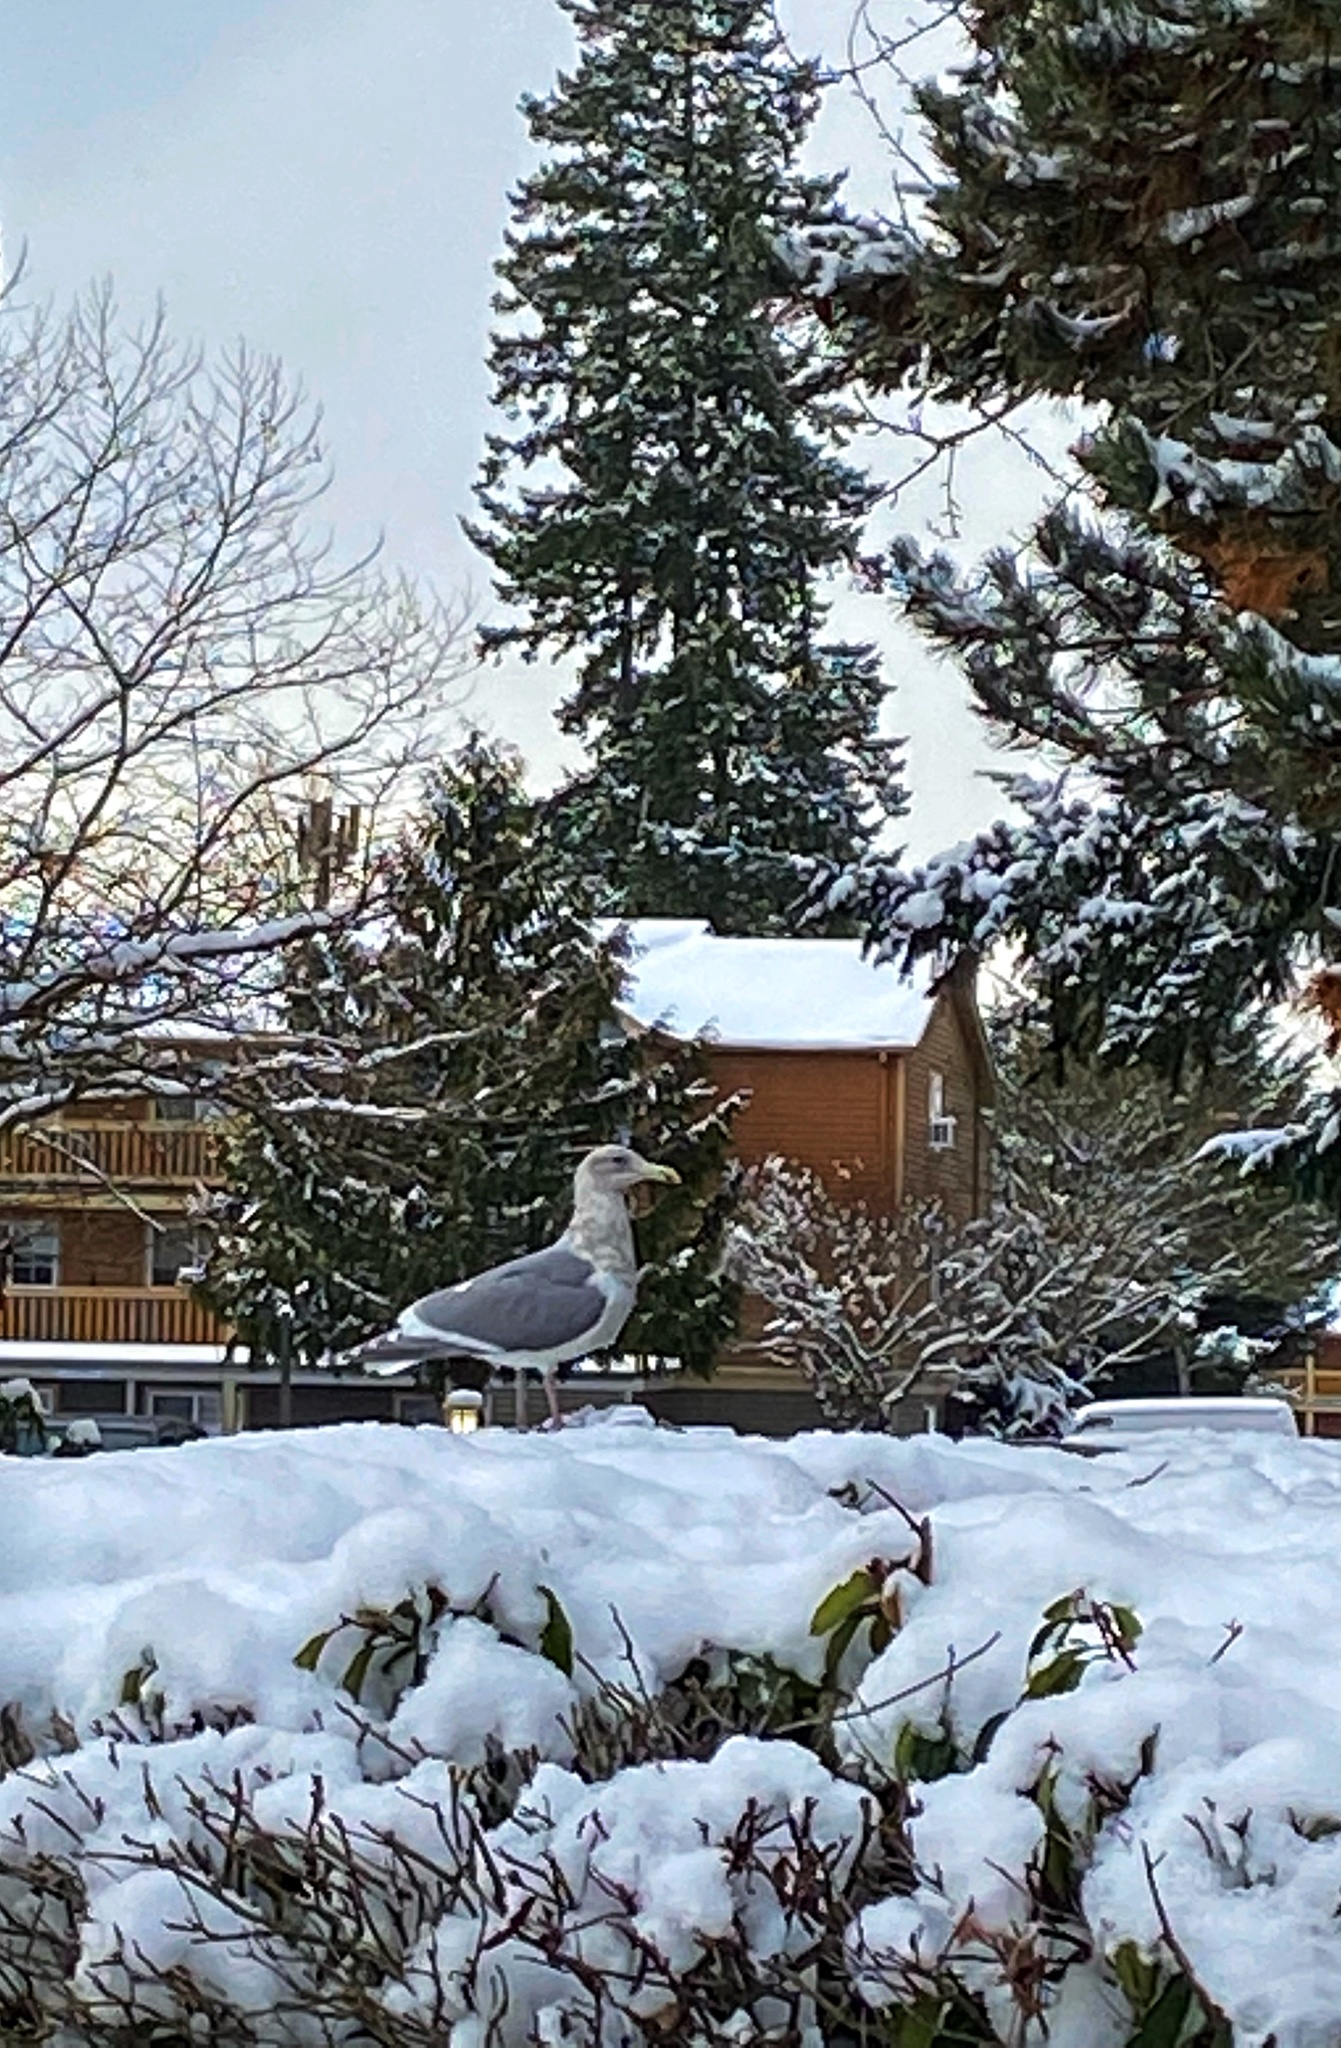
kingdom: Animalia
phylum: Chordata
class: Aves
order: Charadriiformes
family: Laridae
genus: Larus
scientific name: Larus
